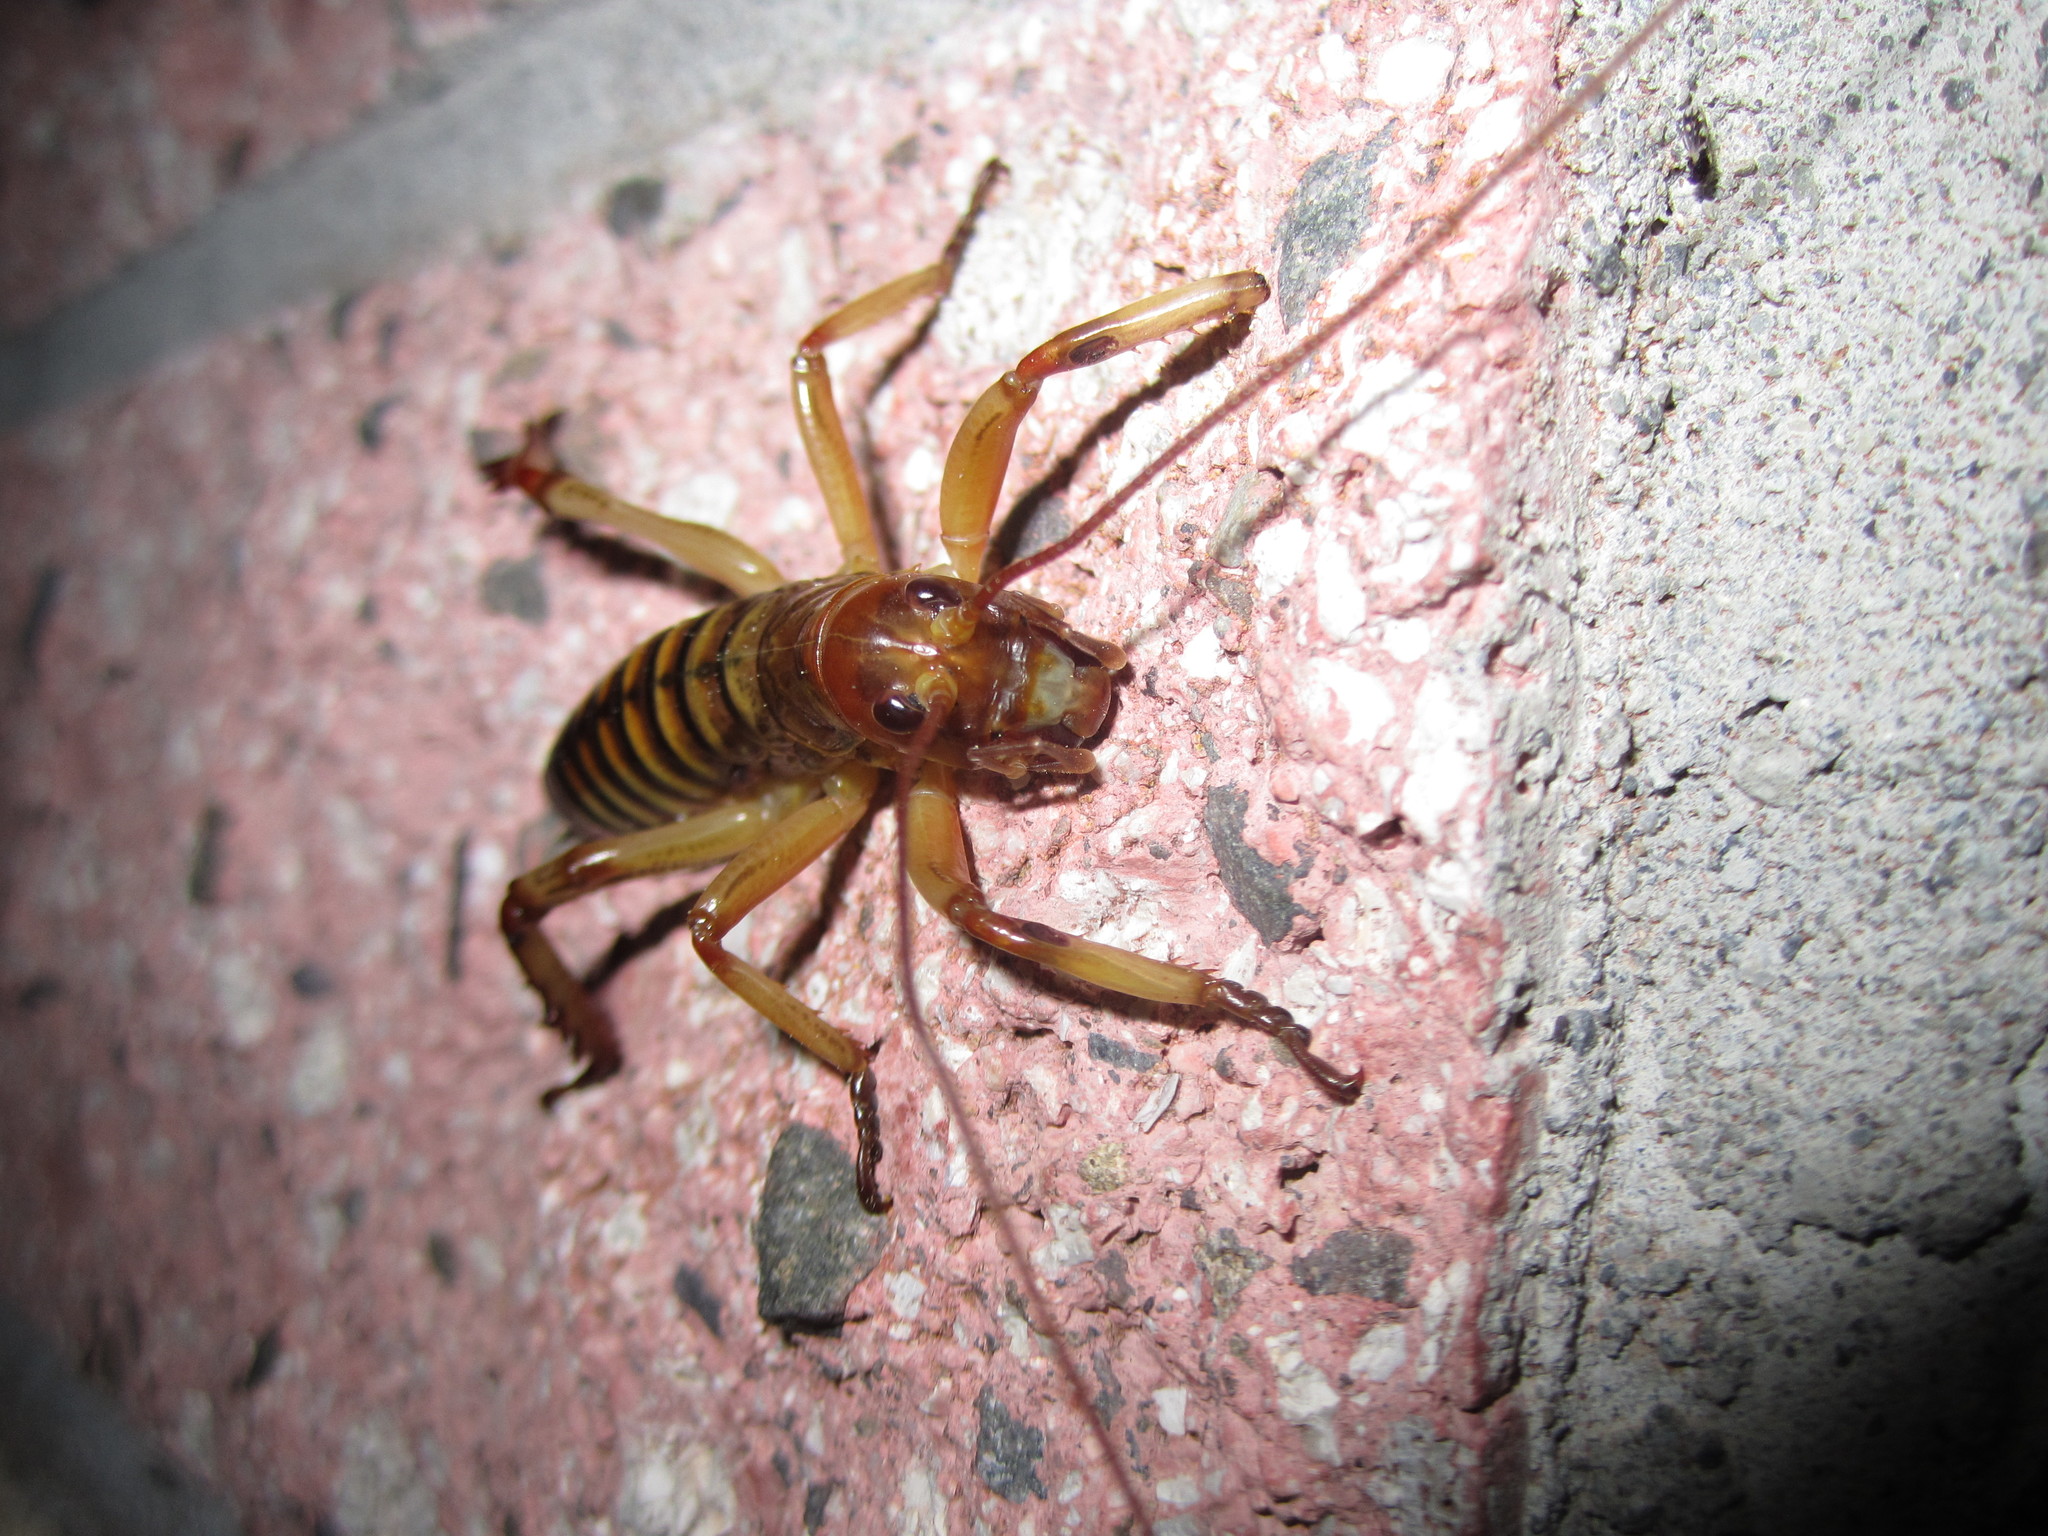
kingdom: Animalia
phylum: Arthropoda
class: Insecta
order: Orthoptera
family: Anostostomatidae
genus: Hemideina
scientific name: Hemideina crassidens
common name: Wellington tree weta
